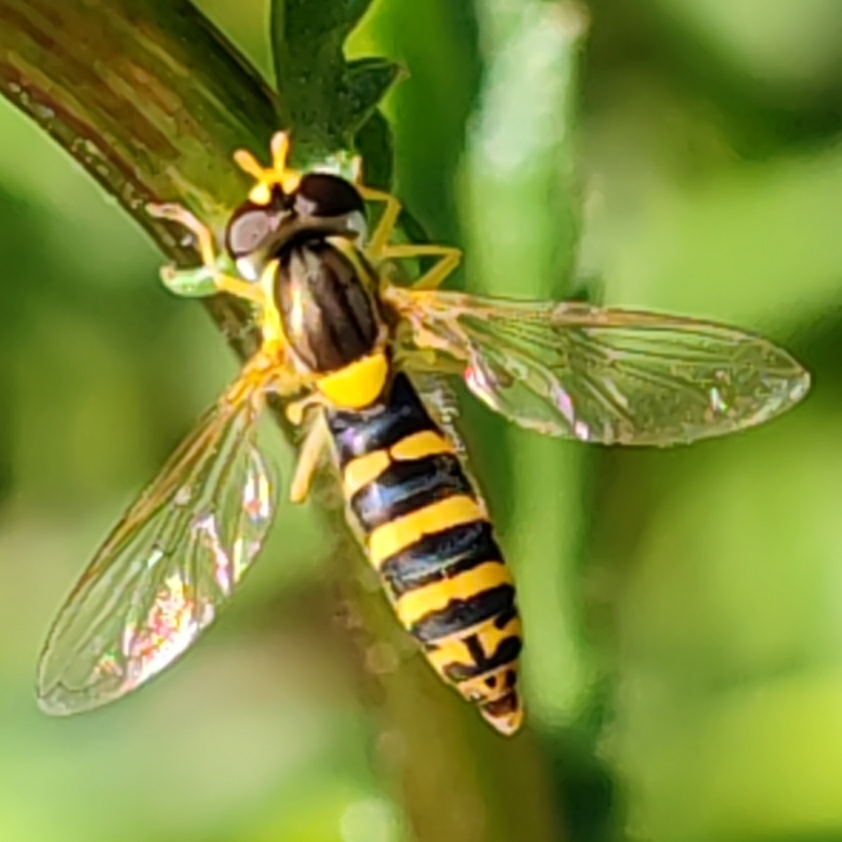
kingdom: Animalia
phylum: Arthropoda
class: Insecta
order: Diptera
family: Syrphidae
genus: Sphaerophoria
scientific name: Sphaerophoria
